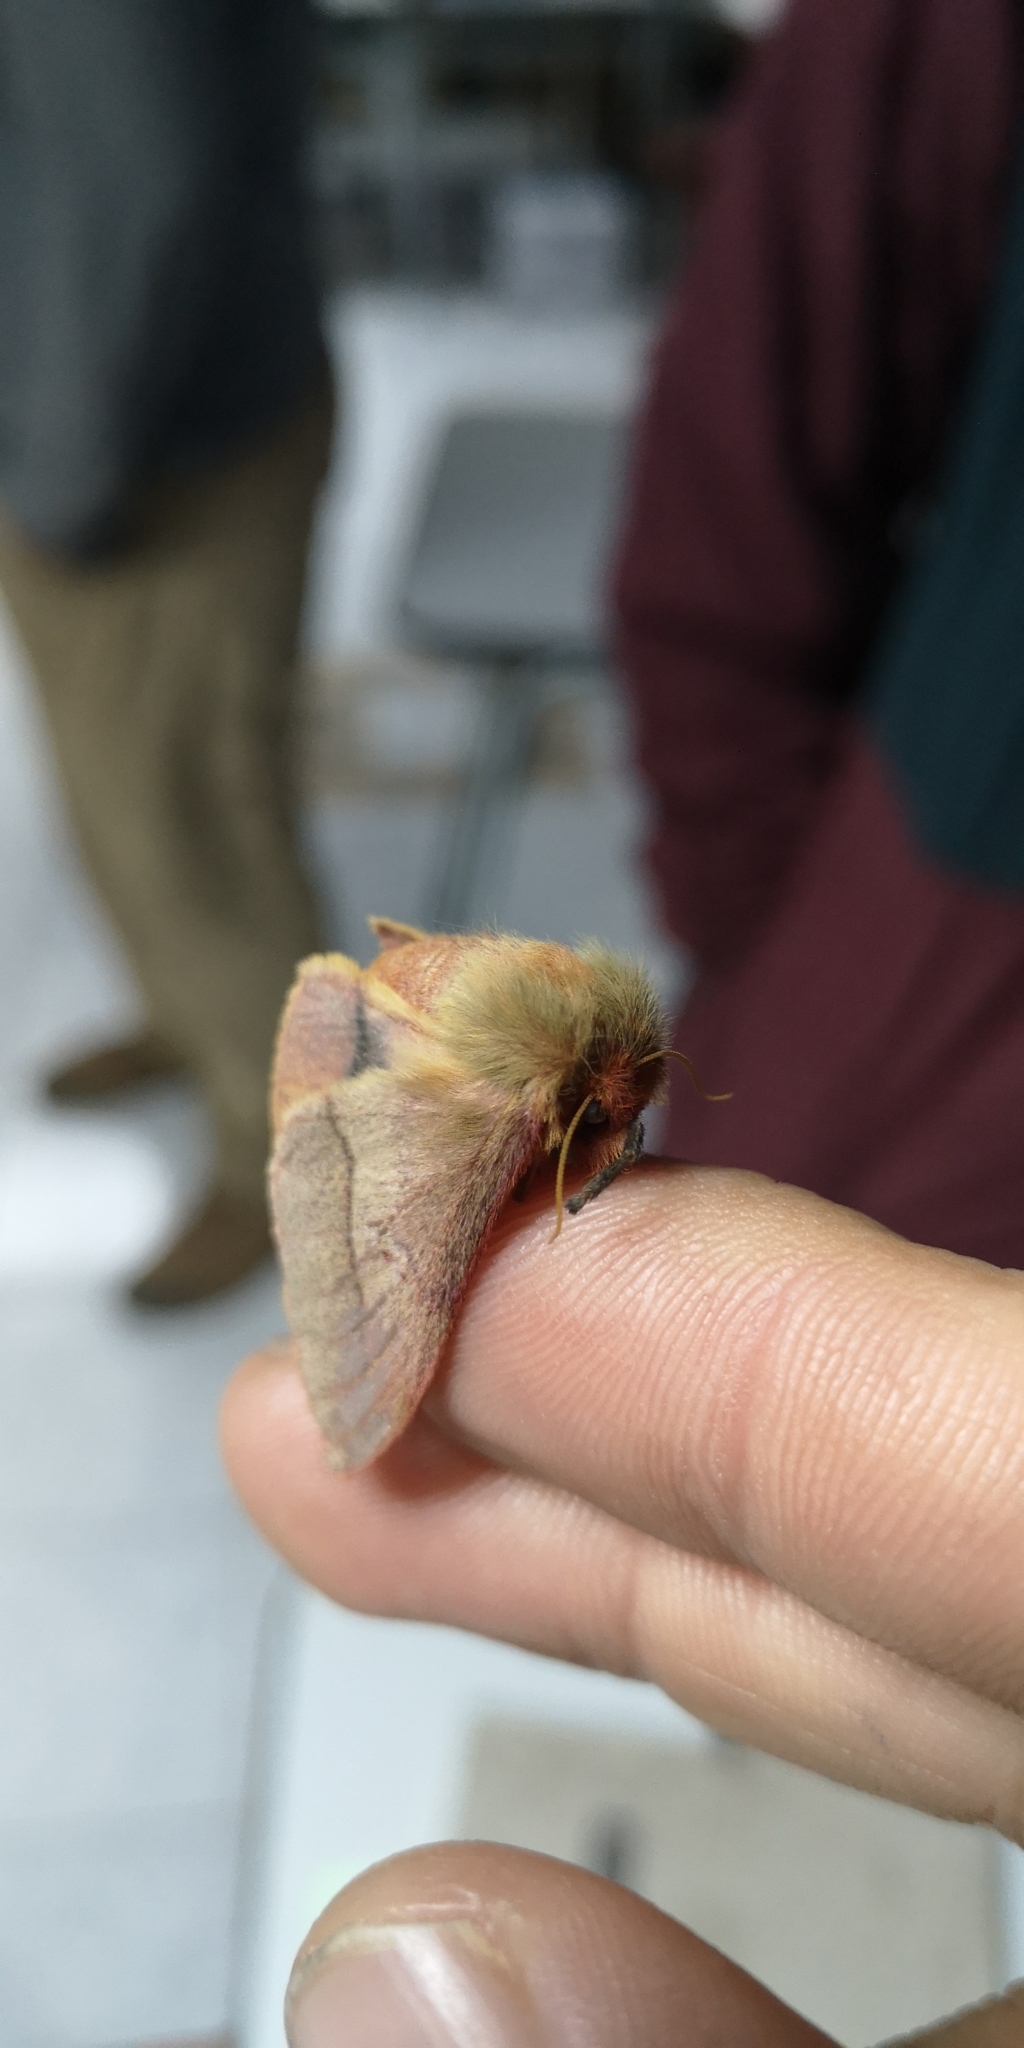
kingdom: Animalia
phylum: Arthropoda
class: Insecta
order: Lepidoptera
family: Saturniidae
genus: Adetomeris
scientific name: Adetomeris erythrops
